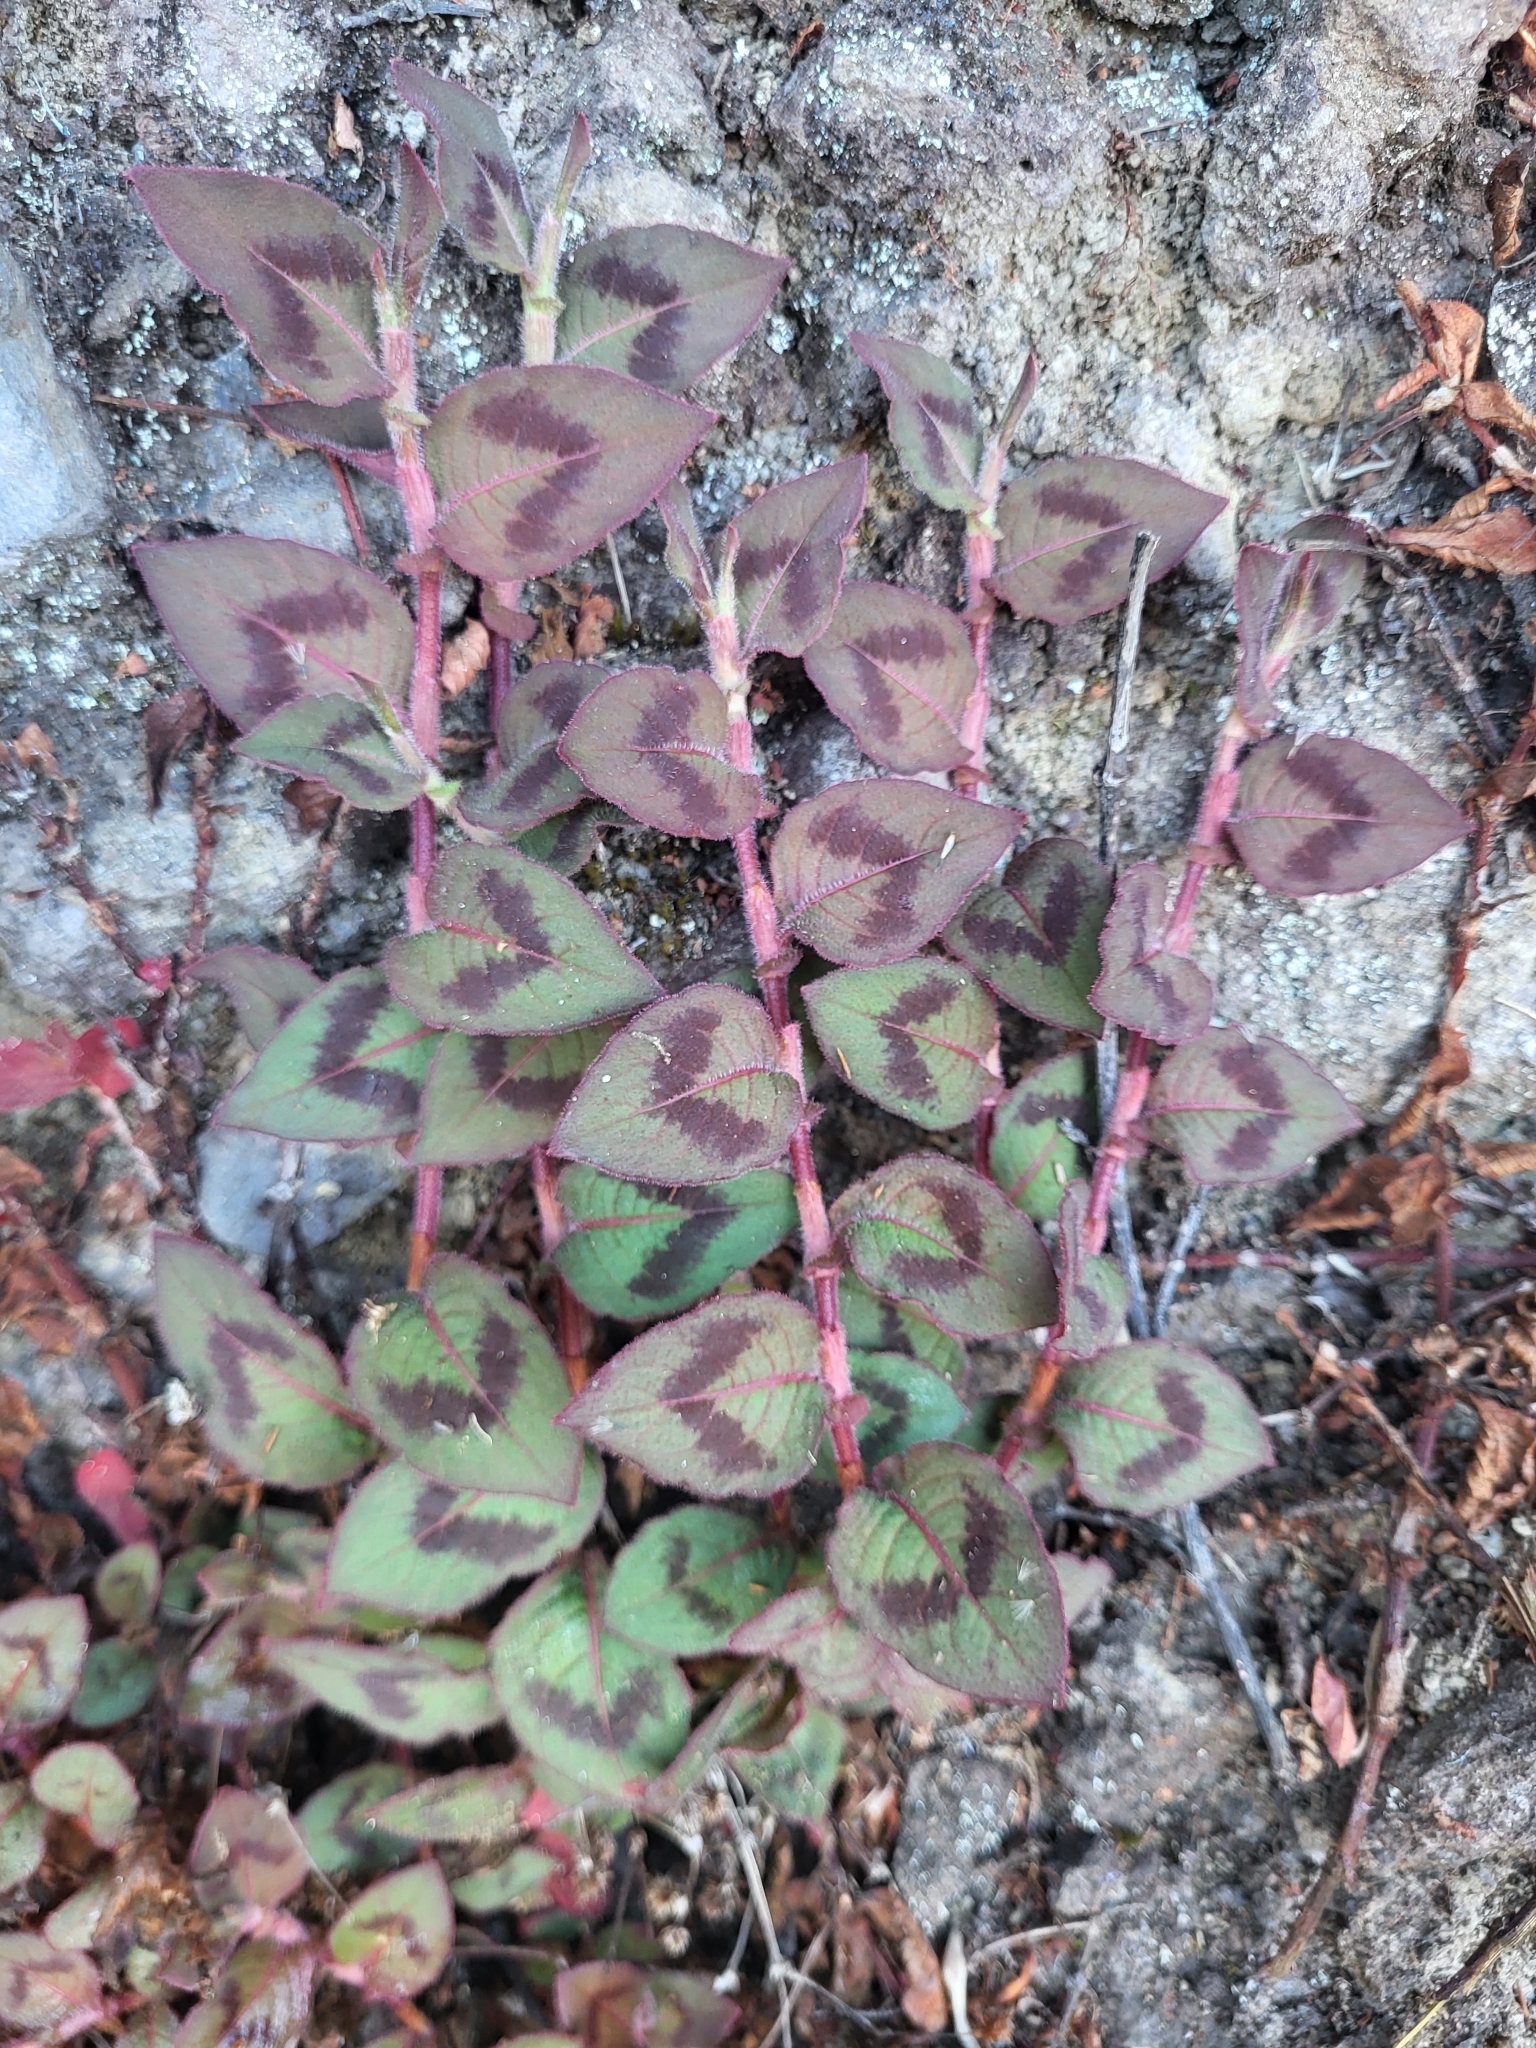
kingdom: Plantae
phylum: Tracheophyta
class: Magnoliopsida
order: Caryophyllales
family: Polygonaceae
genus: Persicaria
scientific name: Persicaria capitata
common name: Pinkhead smartweed
